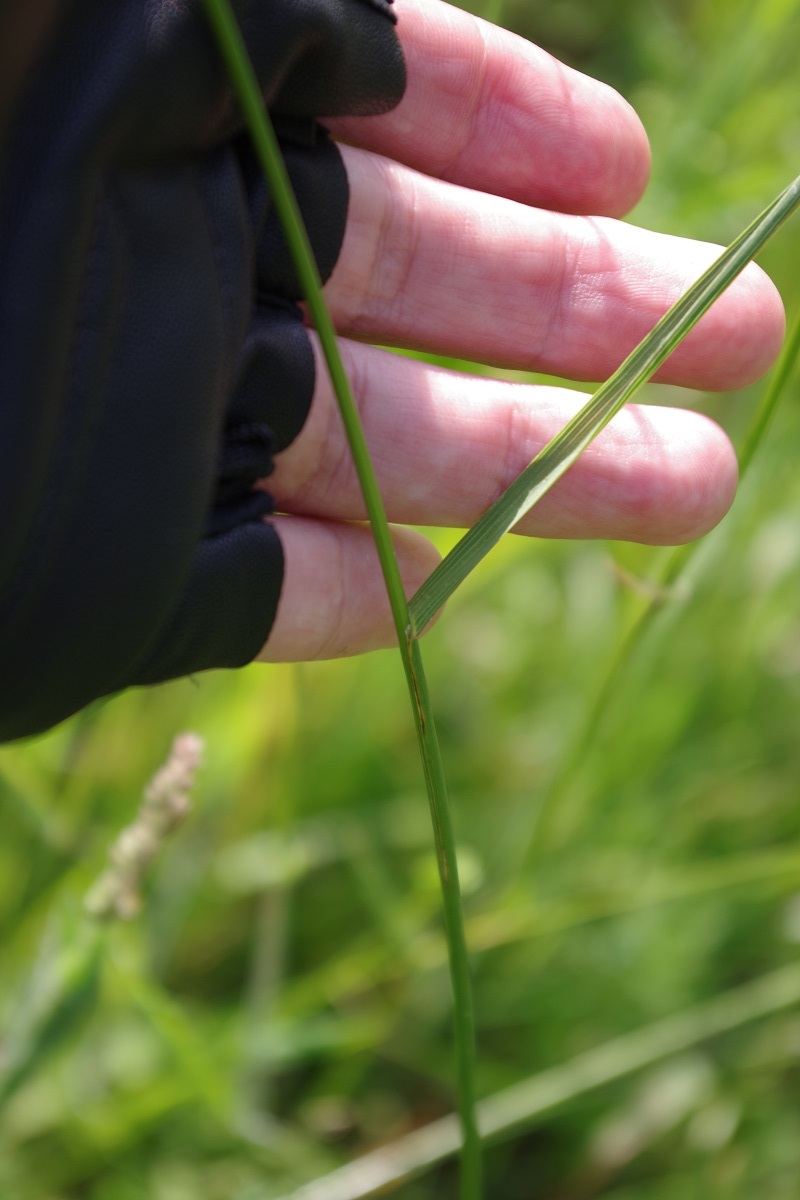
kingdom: Plantae
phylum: Tracheophyta
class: Liliopsida
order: Poales
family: Poaceae
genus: Bromus
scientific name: Bromus erectus
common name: Erect brome
